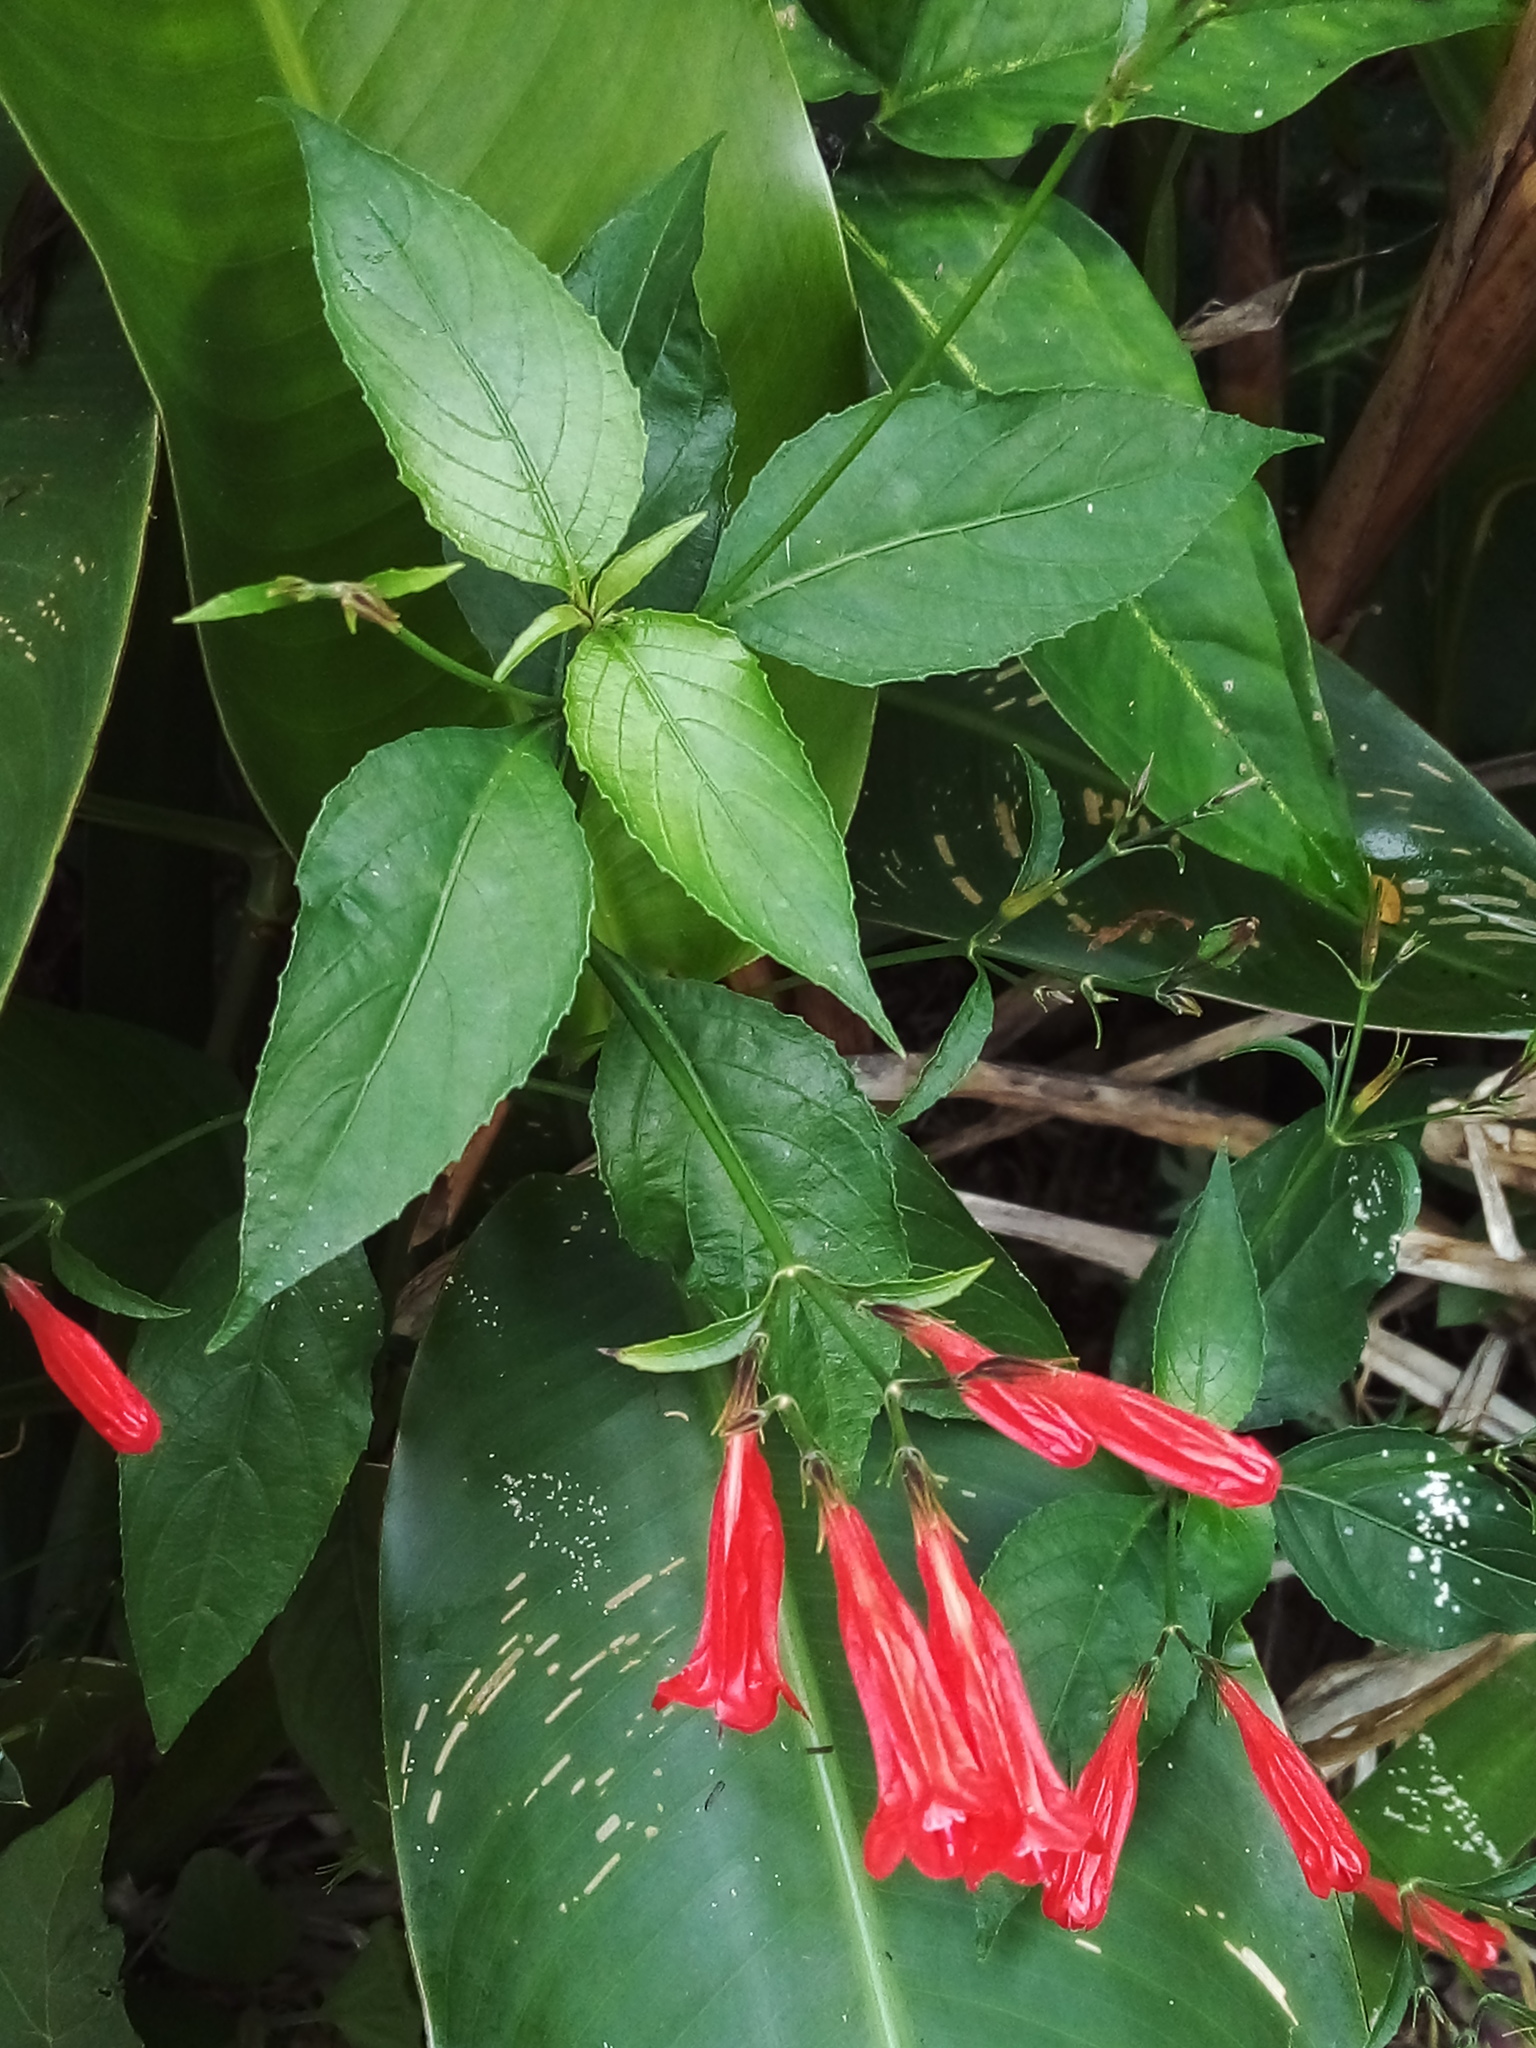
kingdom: Plantae
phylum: Tracheophyta
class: Magnoliopsida
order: Lamiales
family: Acanthaceae
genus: Ruellia
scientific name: Ruellia brevifolia
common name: Tropical wild petunia
